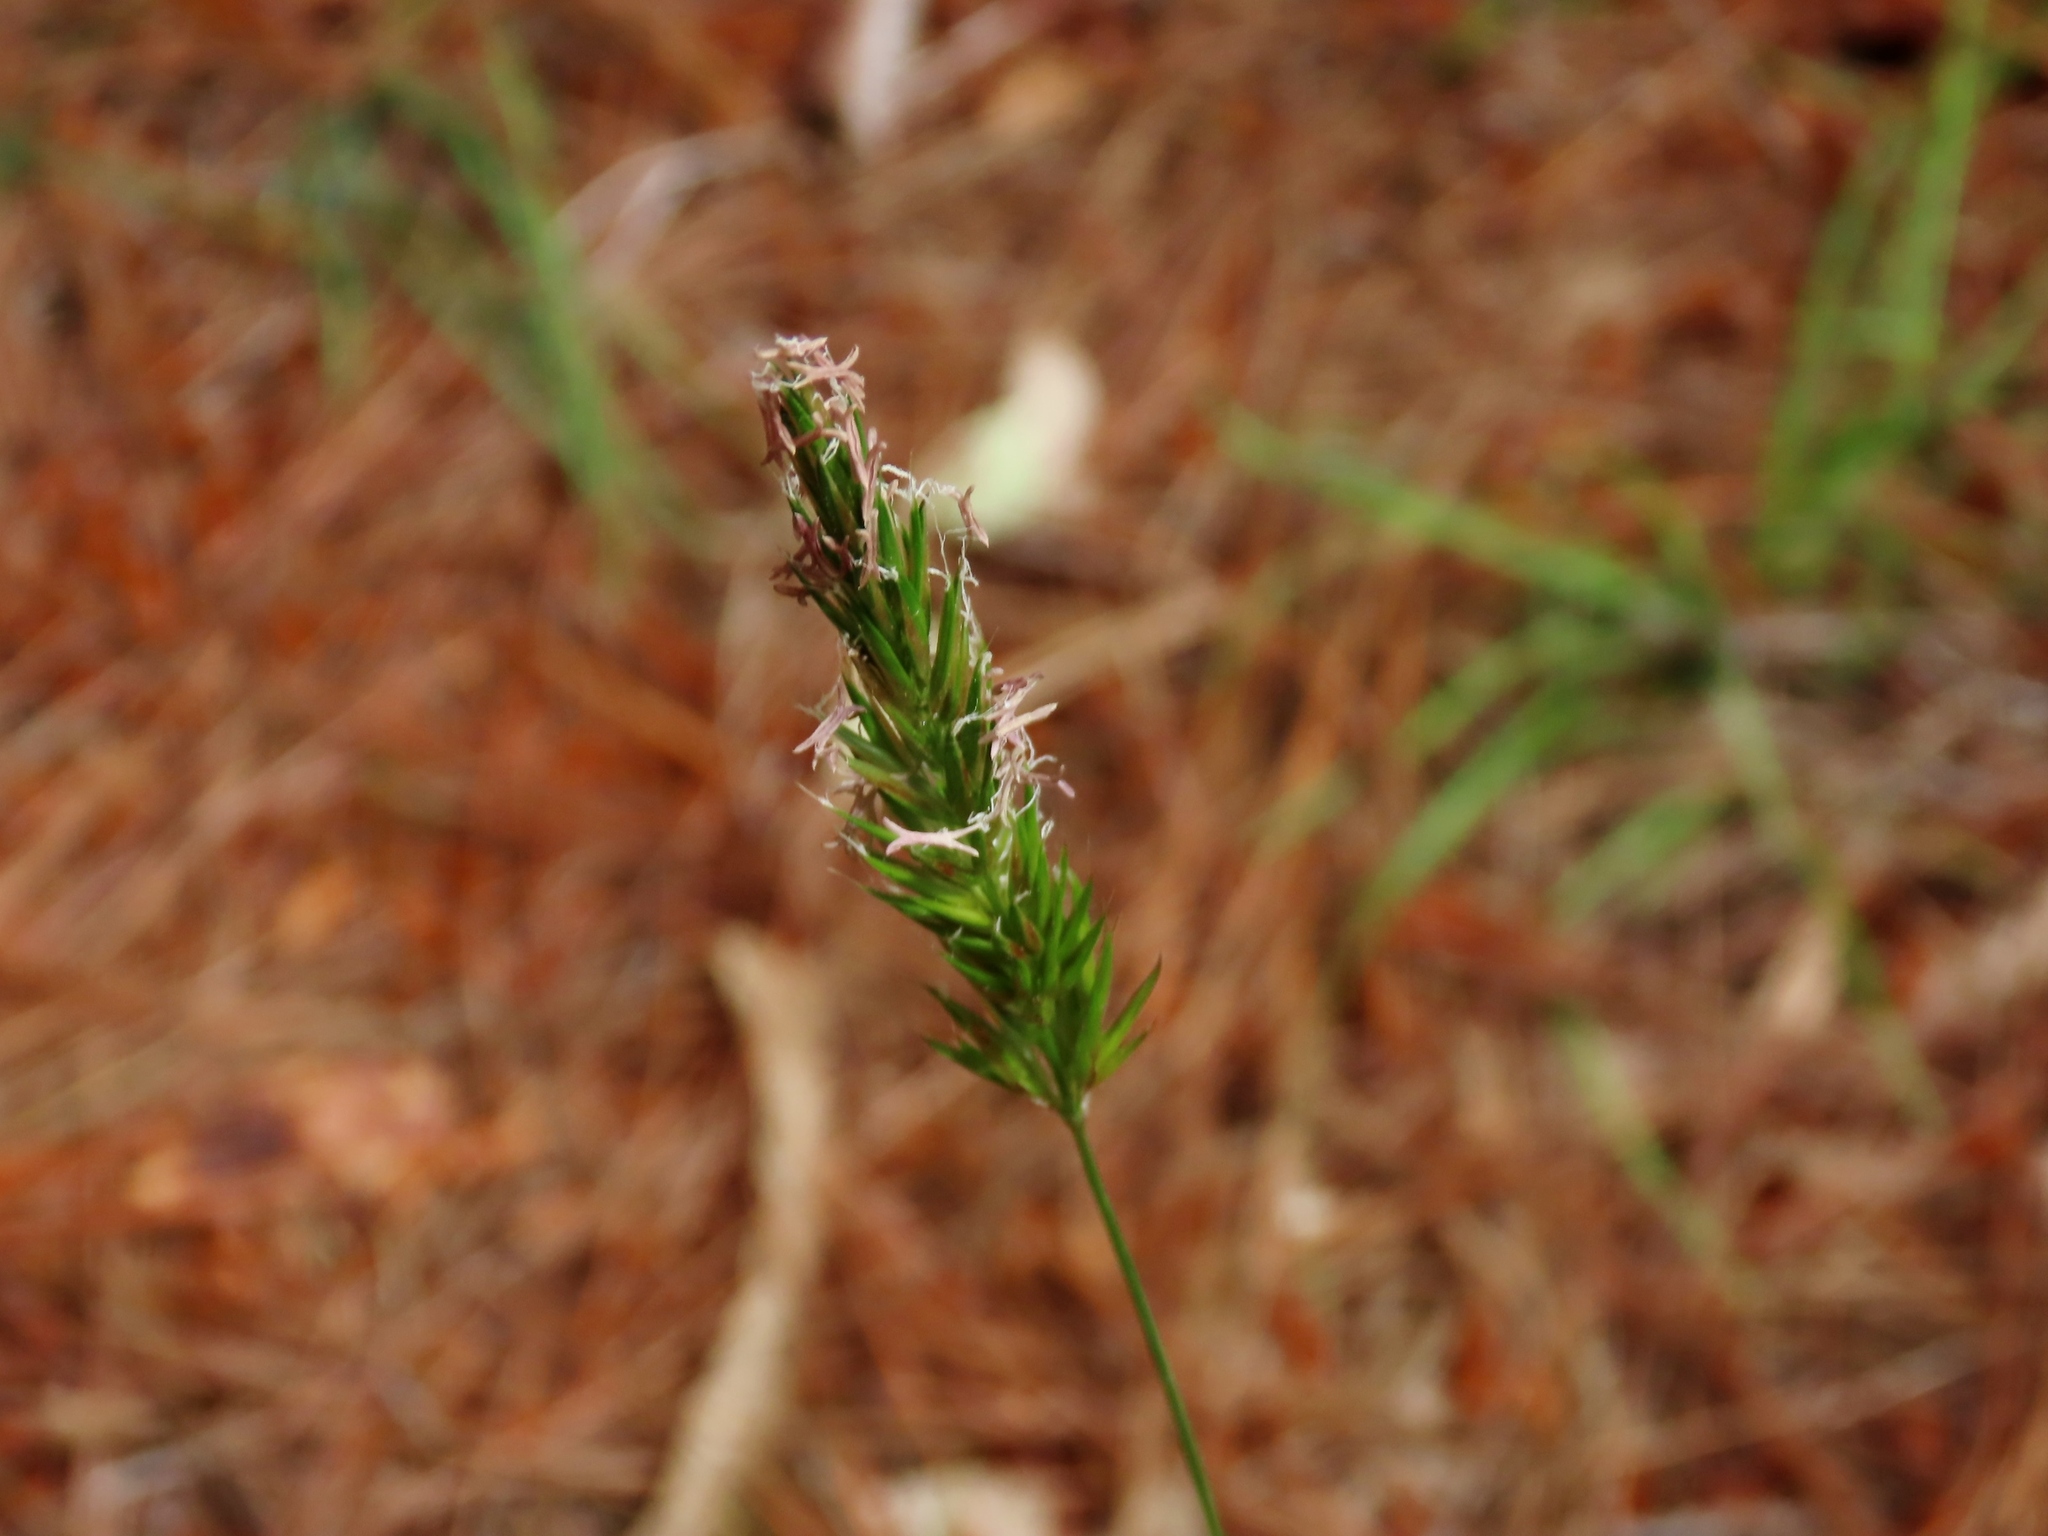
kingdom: Plantae
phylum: Tracheophyta
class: Liliopsida
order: Poales
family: Poaceae
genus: Anthoxanthum
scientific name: Anthoxanthum odoratum
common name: Sweet vernalgrass
